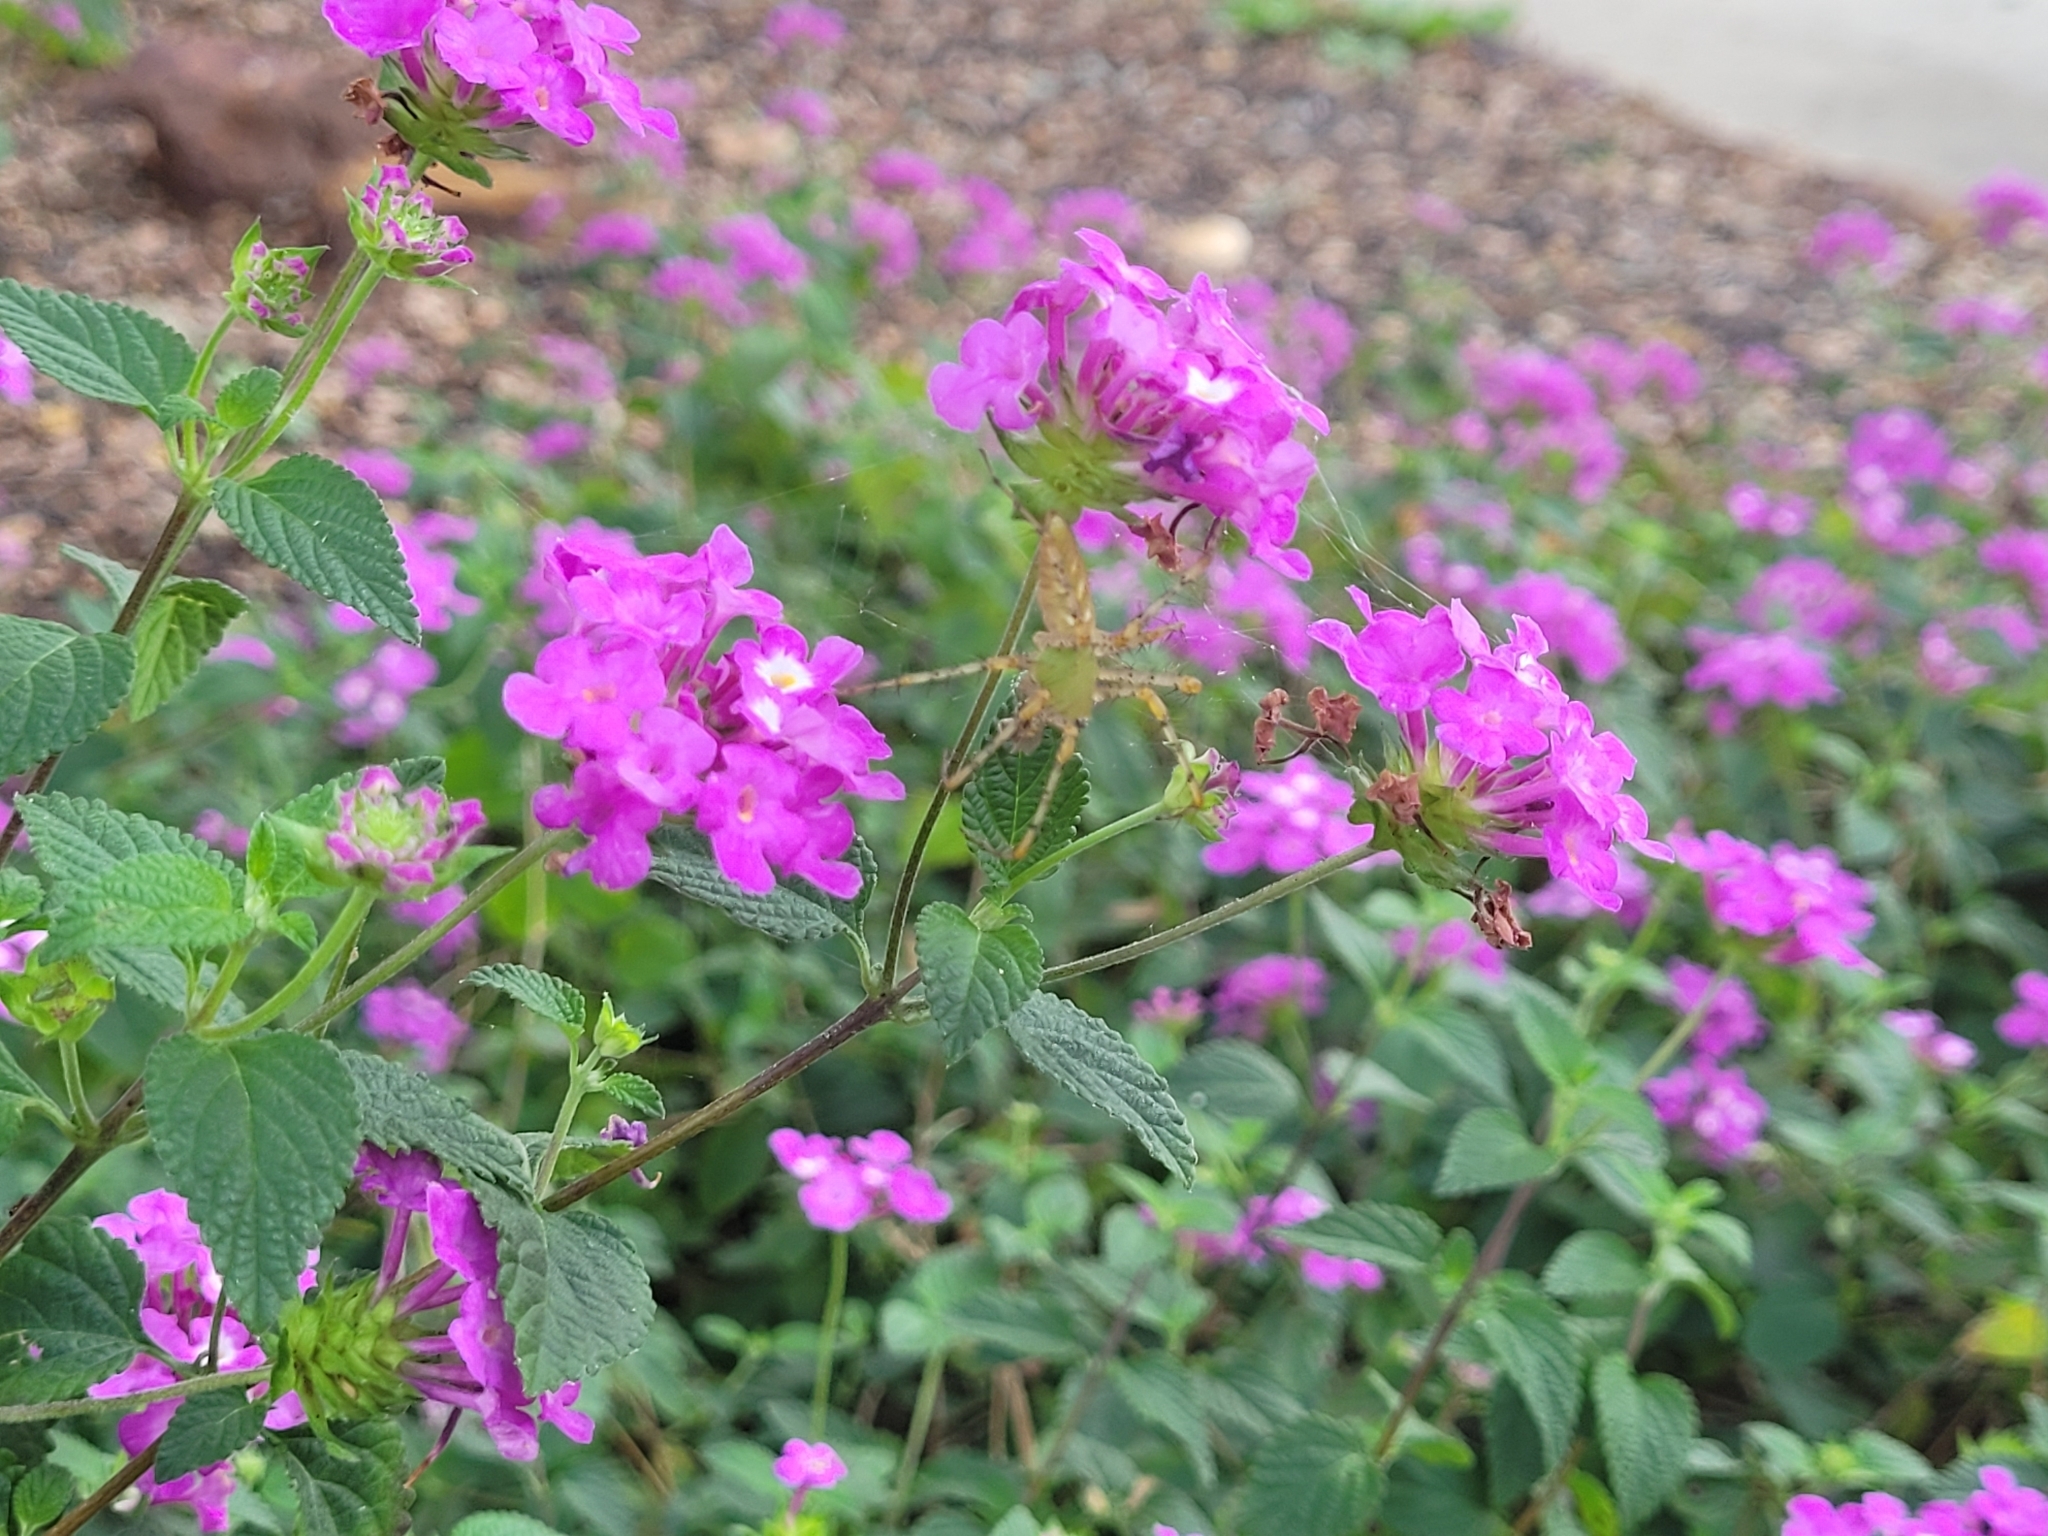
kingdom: Animalia
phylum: Arthropoda
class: Arachnida
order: Araneae
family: Oxyopidae
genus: Peucetia
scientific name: Peucetia viridans
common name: Lynx spiders
